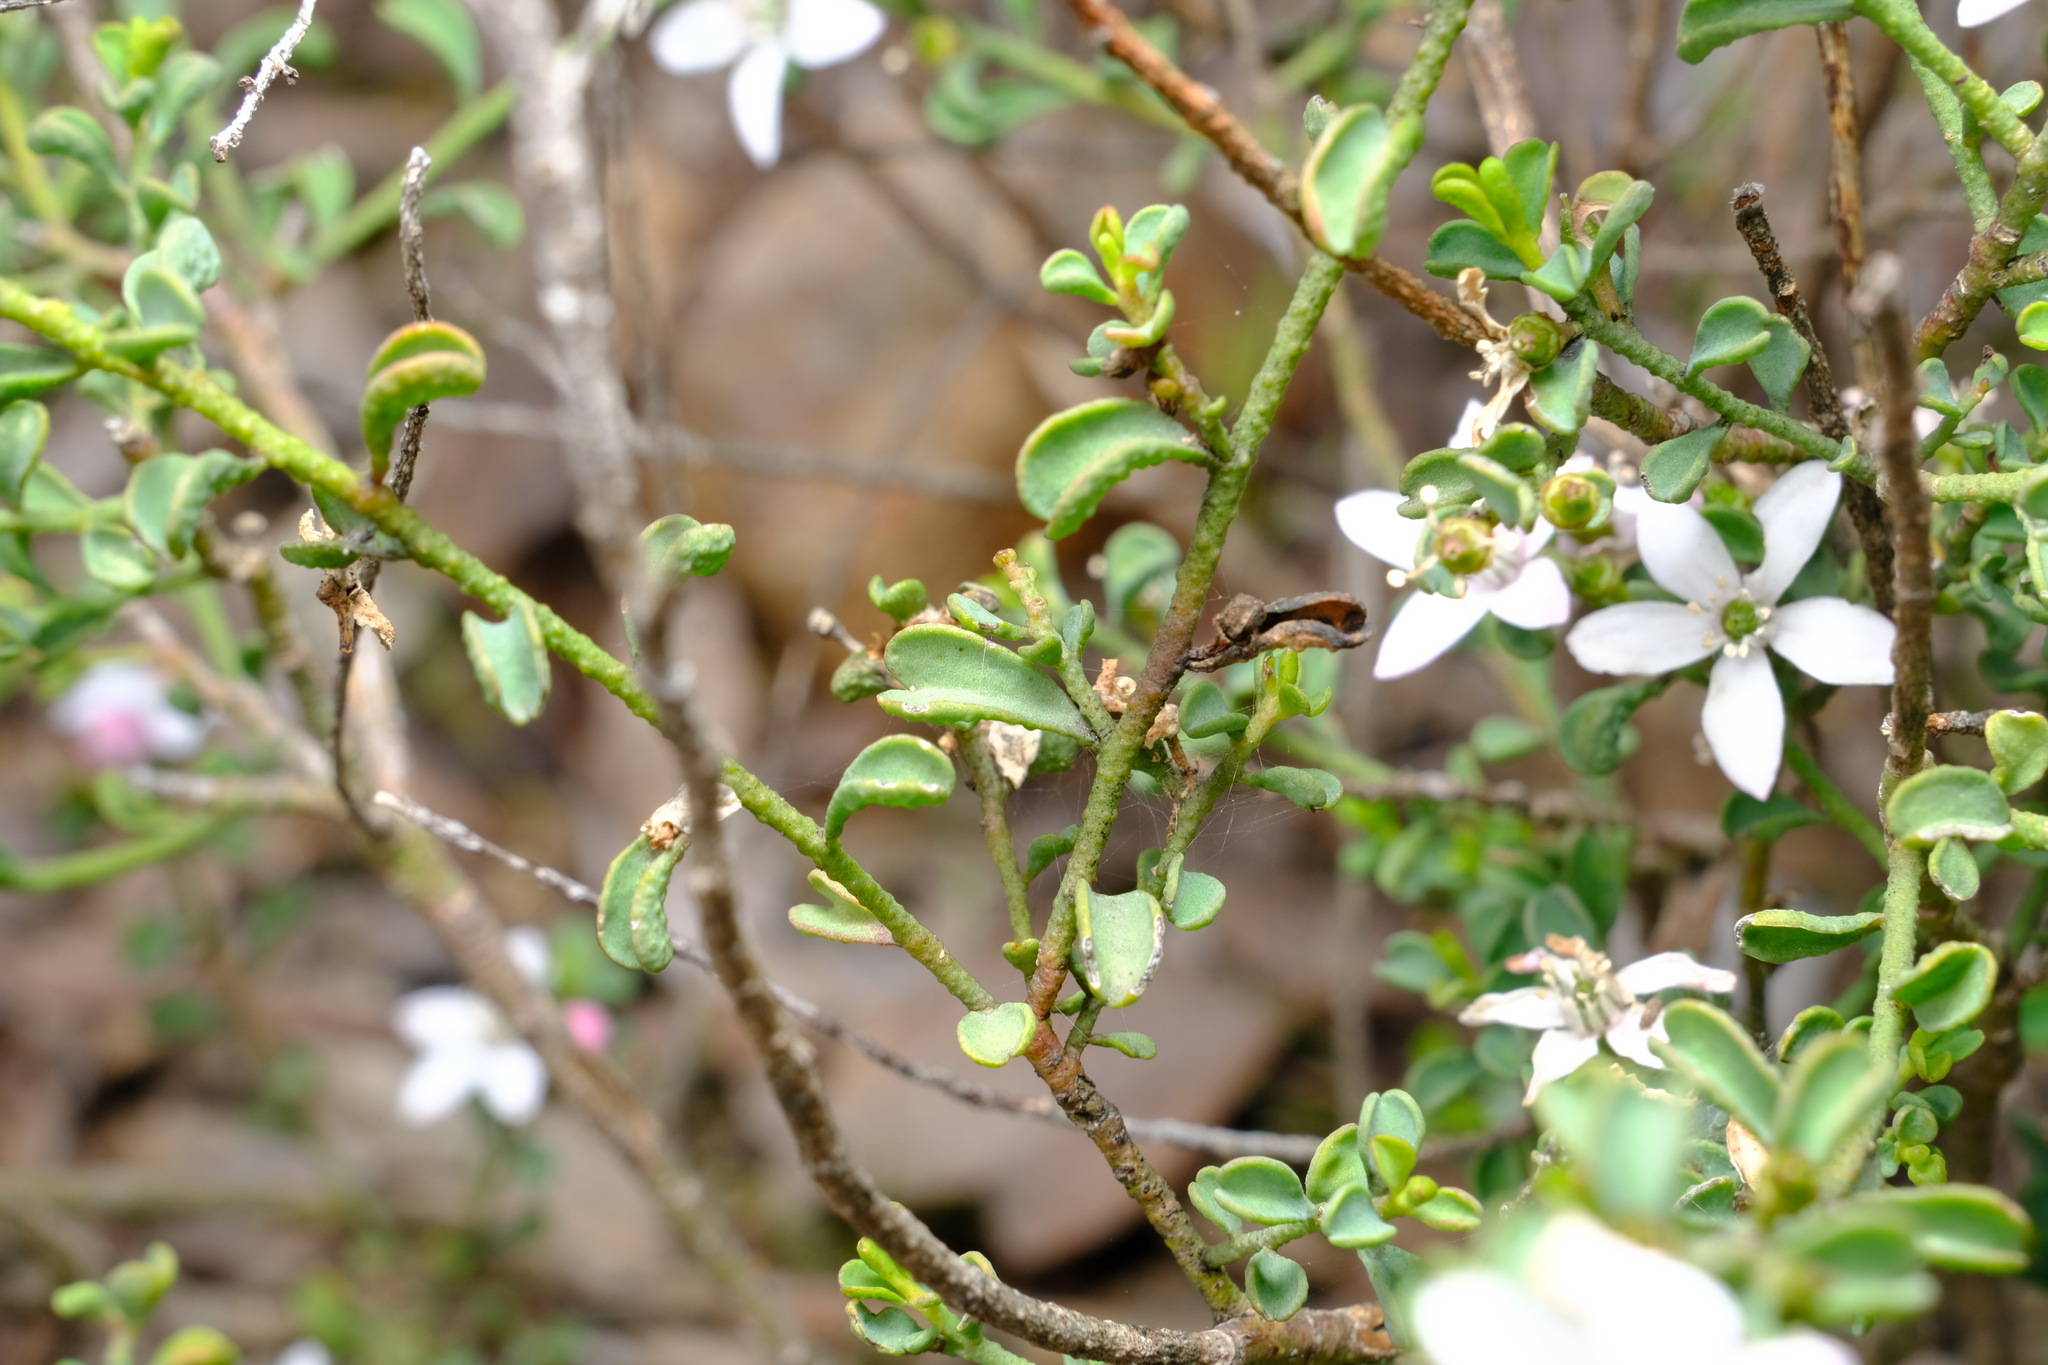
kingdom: Plantae
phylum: Tracheophyta
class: Magnoliopsida
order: Sapindales
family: Rutaceae
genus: Philotheca
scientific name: Philotheca verrucosa
